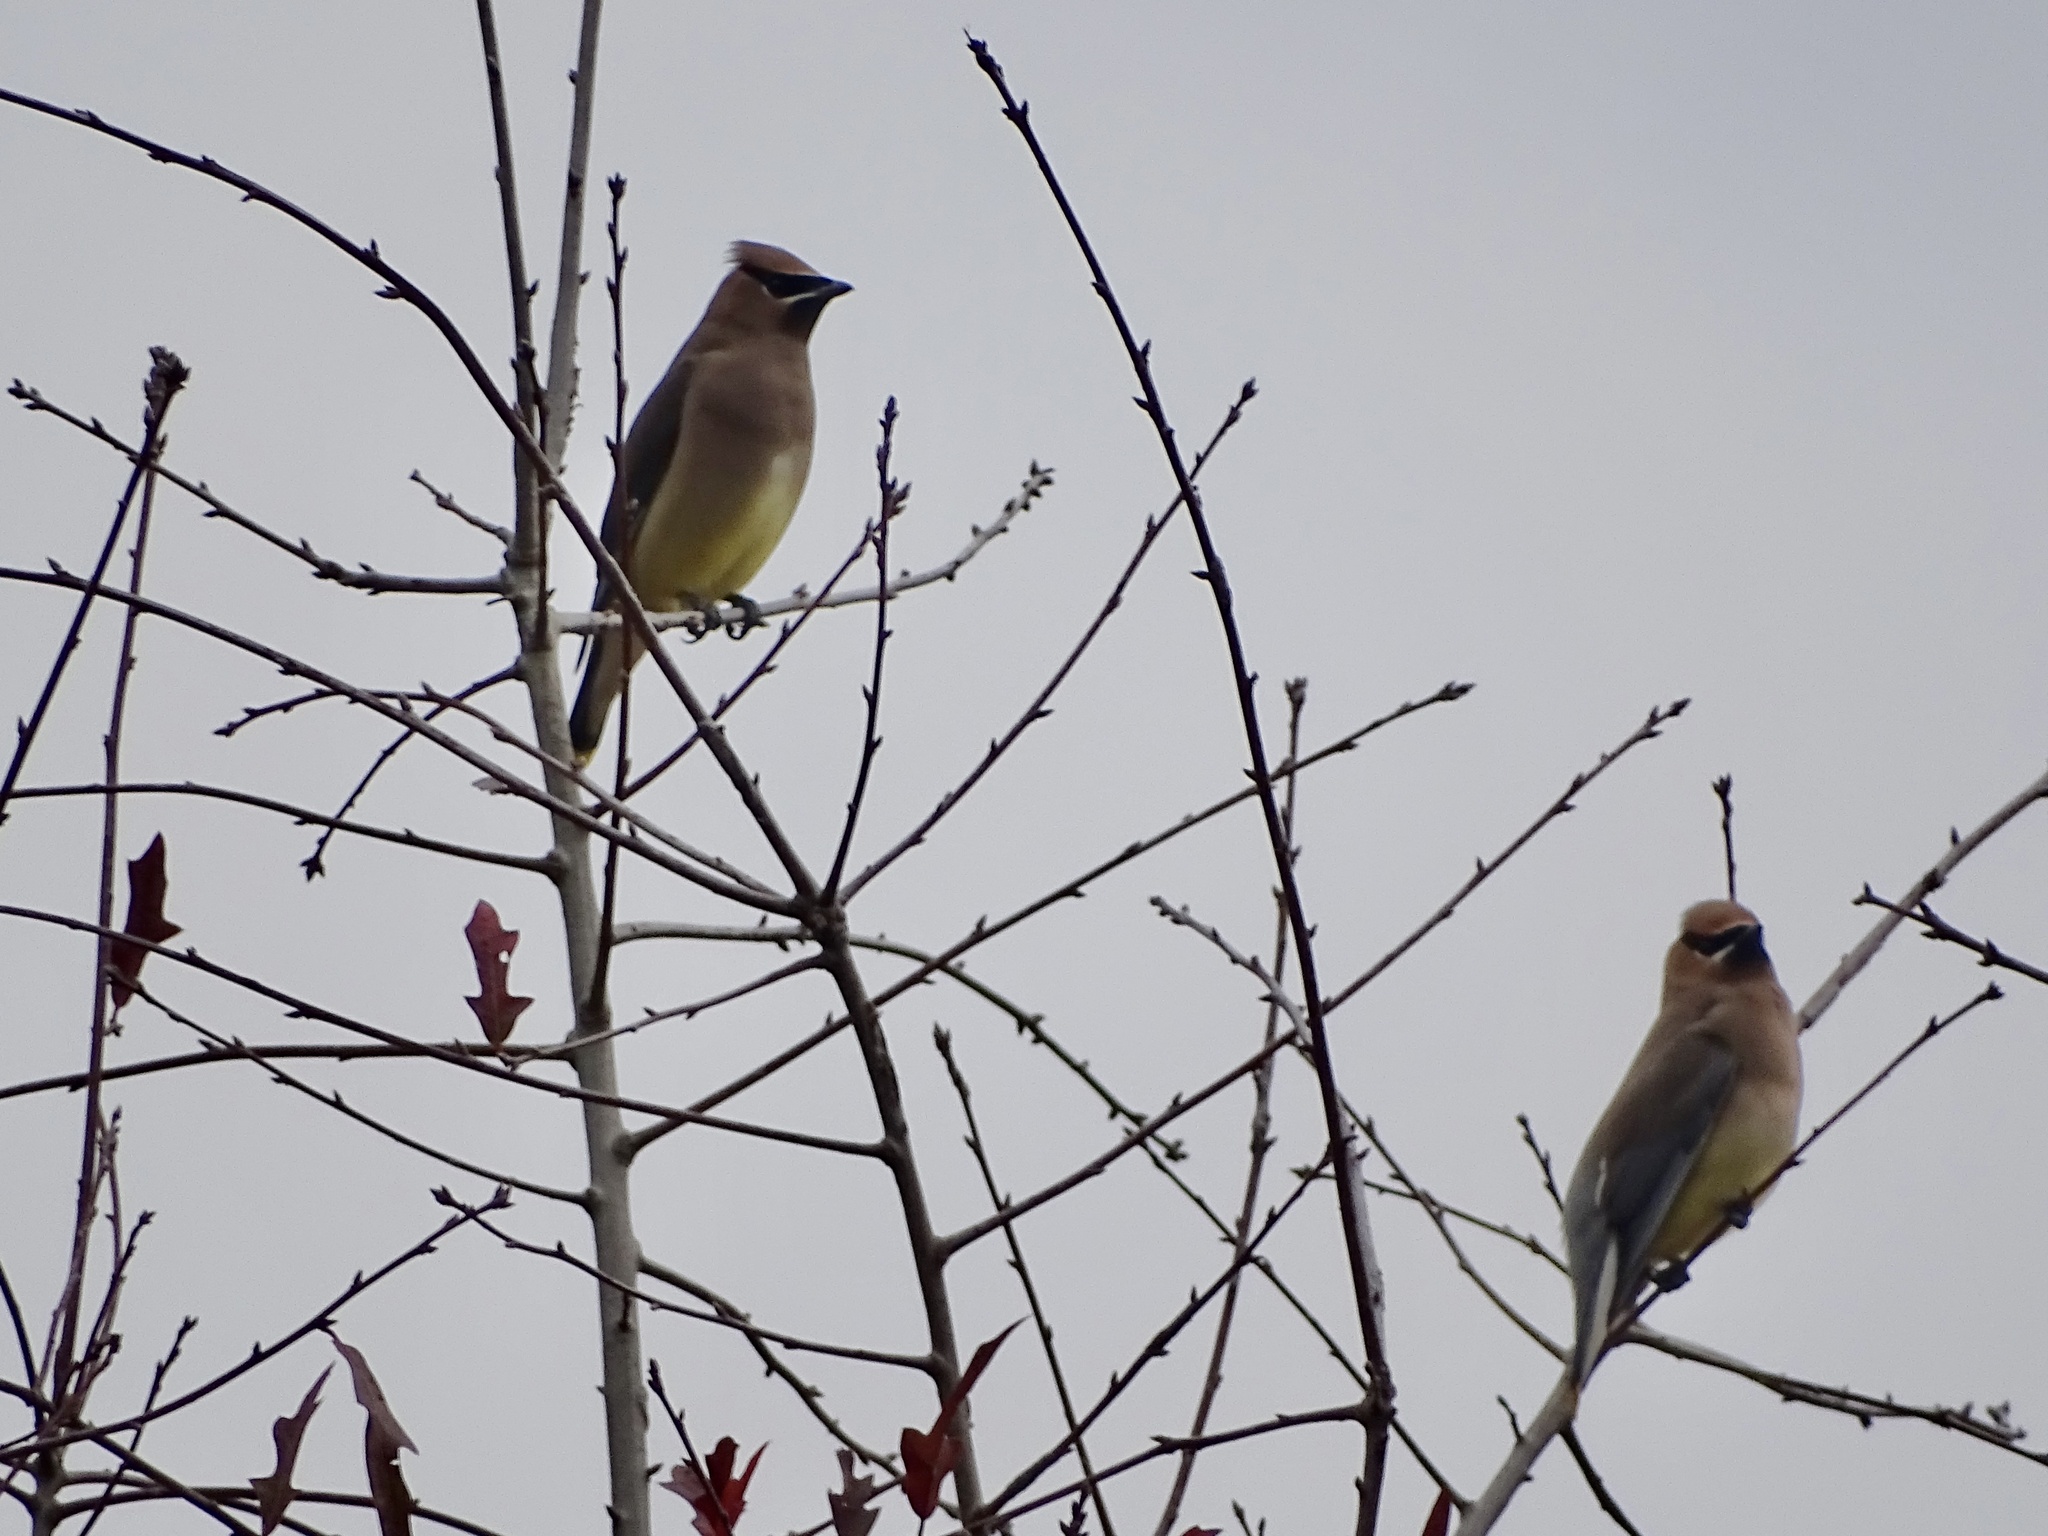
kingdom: Animalia
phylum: Chordata
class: Aves
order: Passeriformes
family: Bombycillidae
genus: Bombycilla
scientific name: Bombycilla cedrorum
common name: Cedar waxwing
